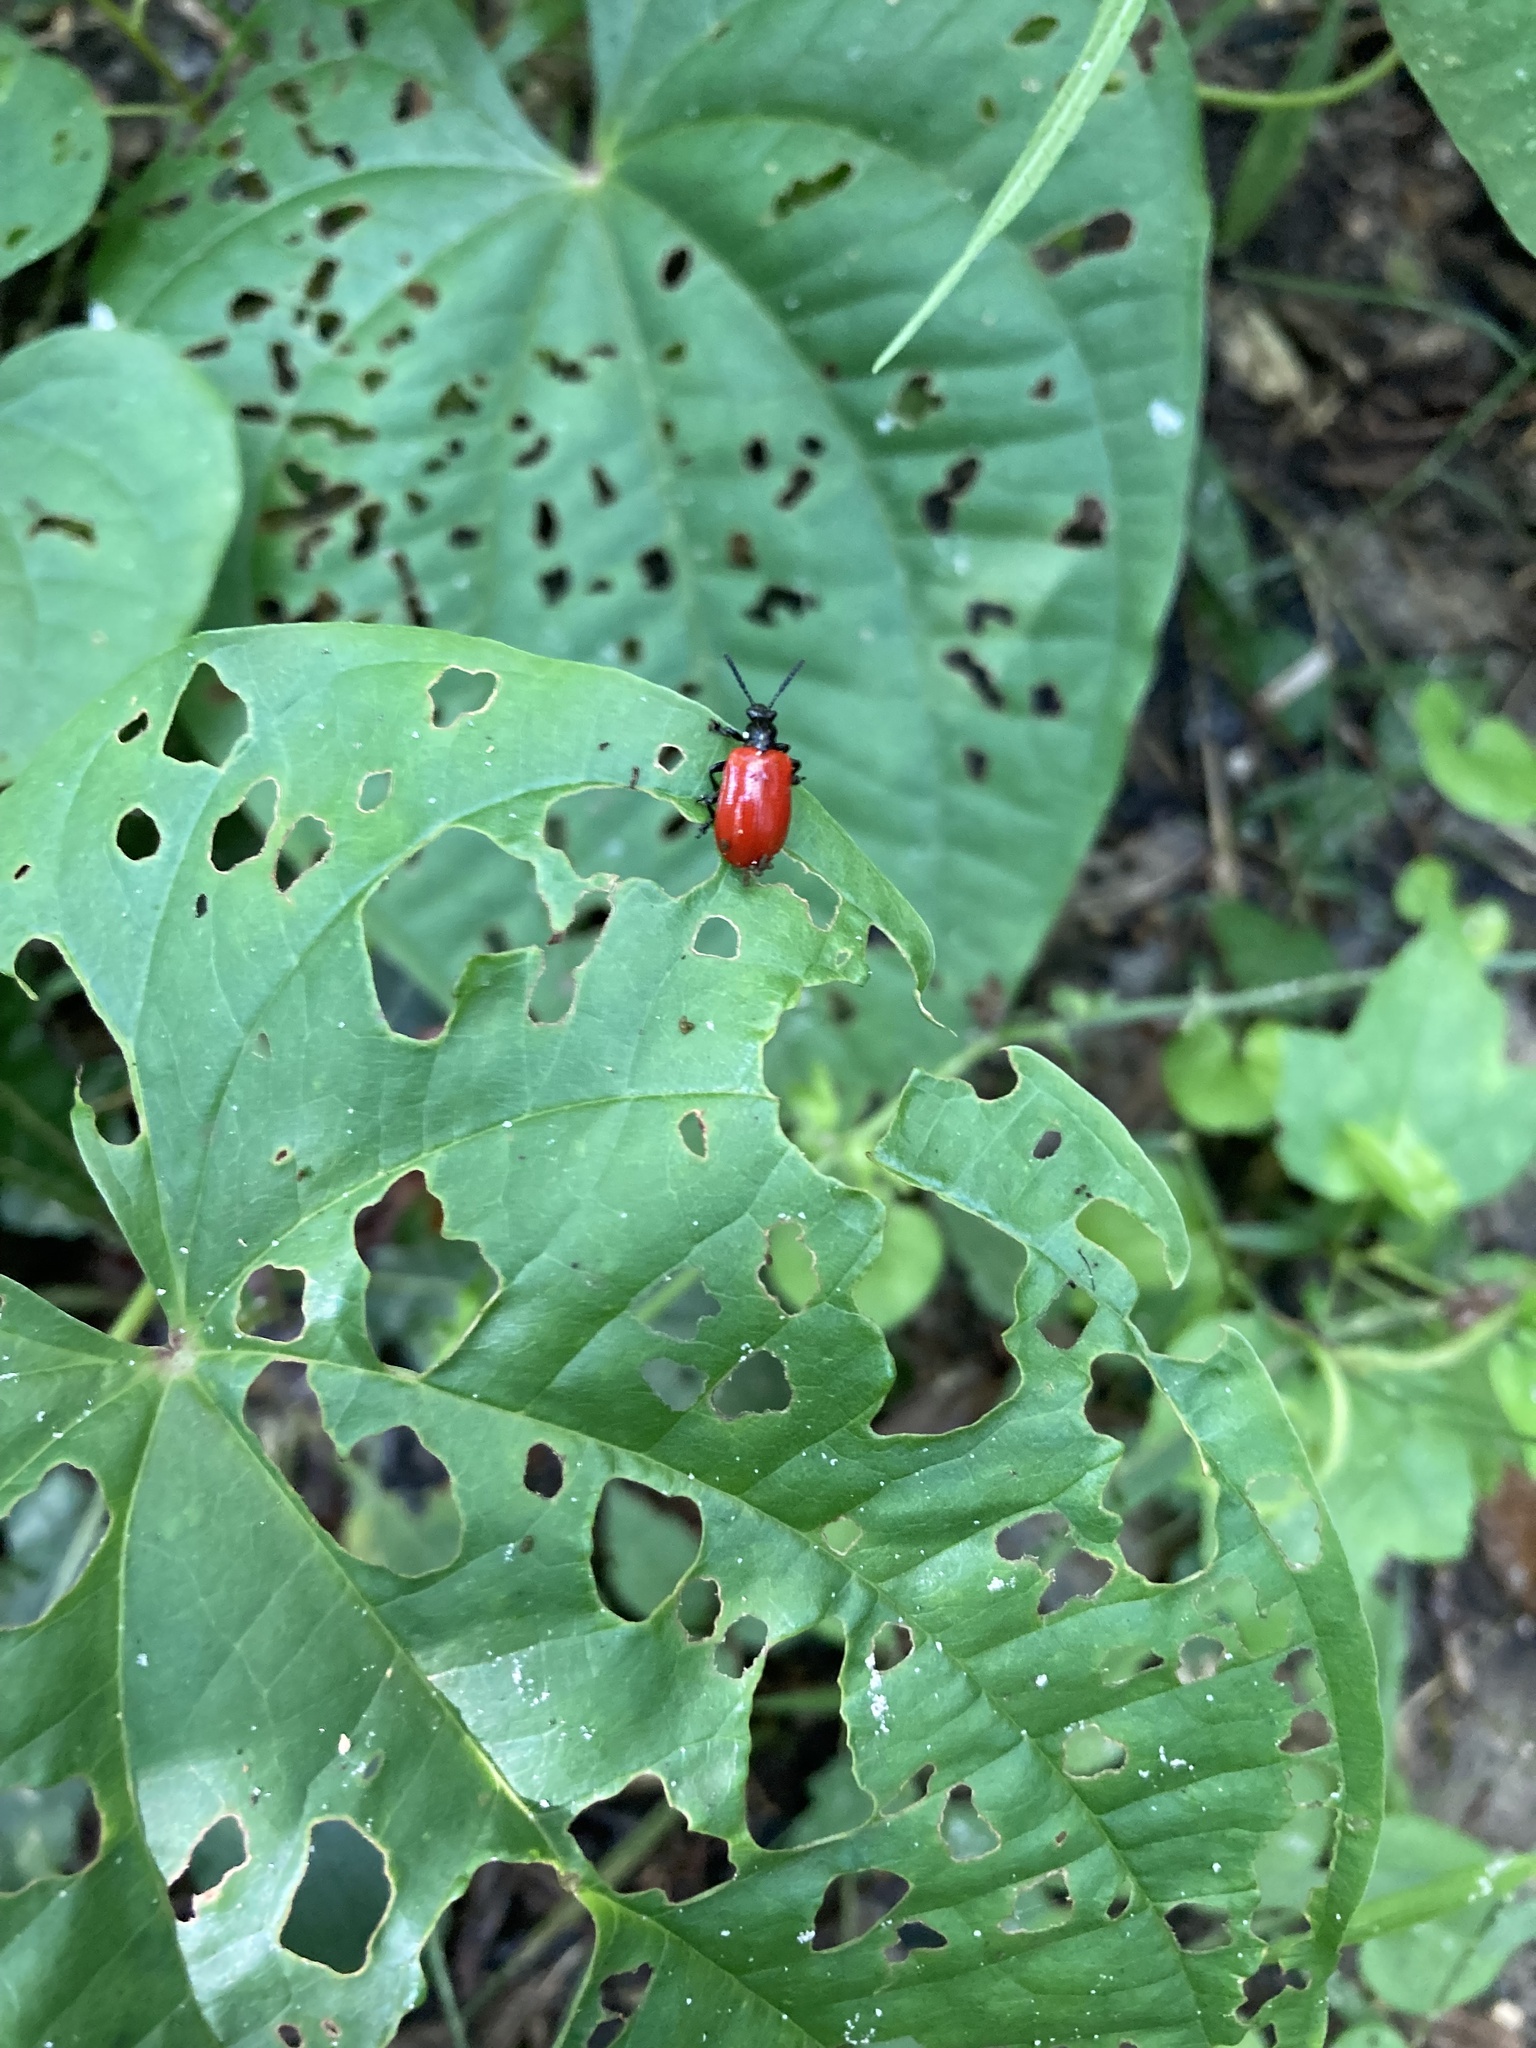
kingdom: Animalia
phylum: Arthropoda
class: Insecta
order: Coleoptera
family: Chrysomelidae
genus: Lilioceris
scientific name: Lilioceris cheni
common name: Leaf beetle
